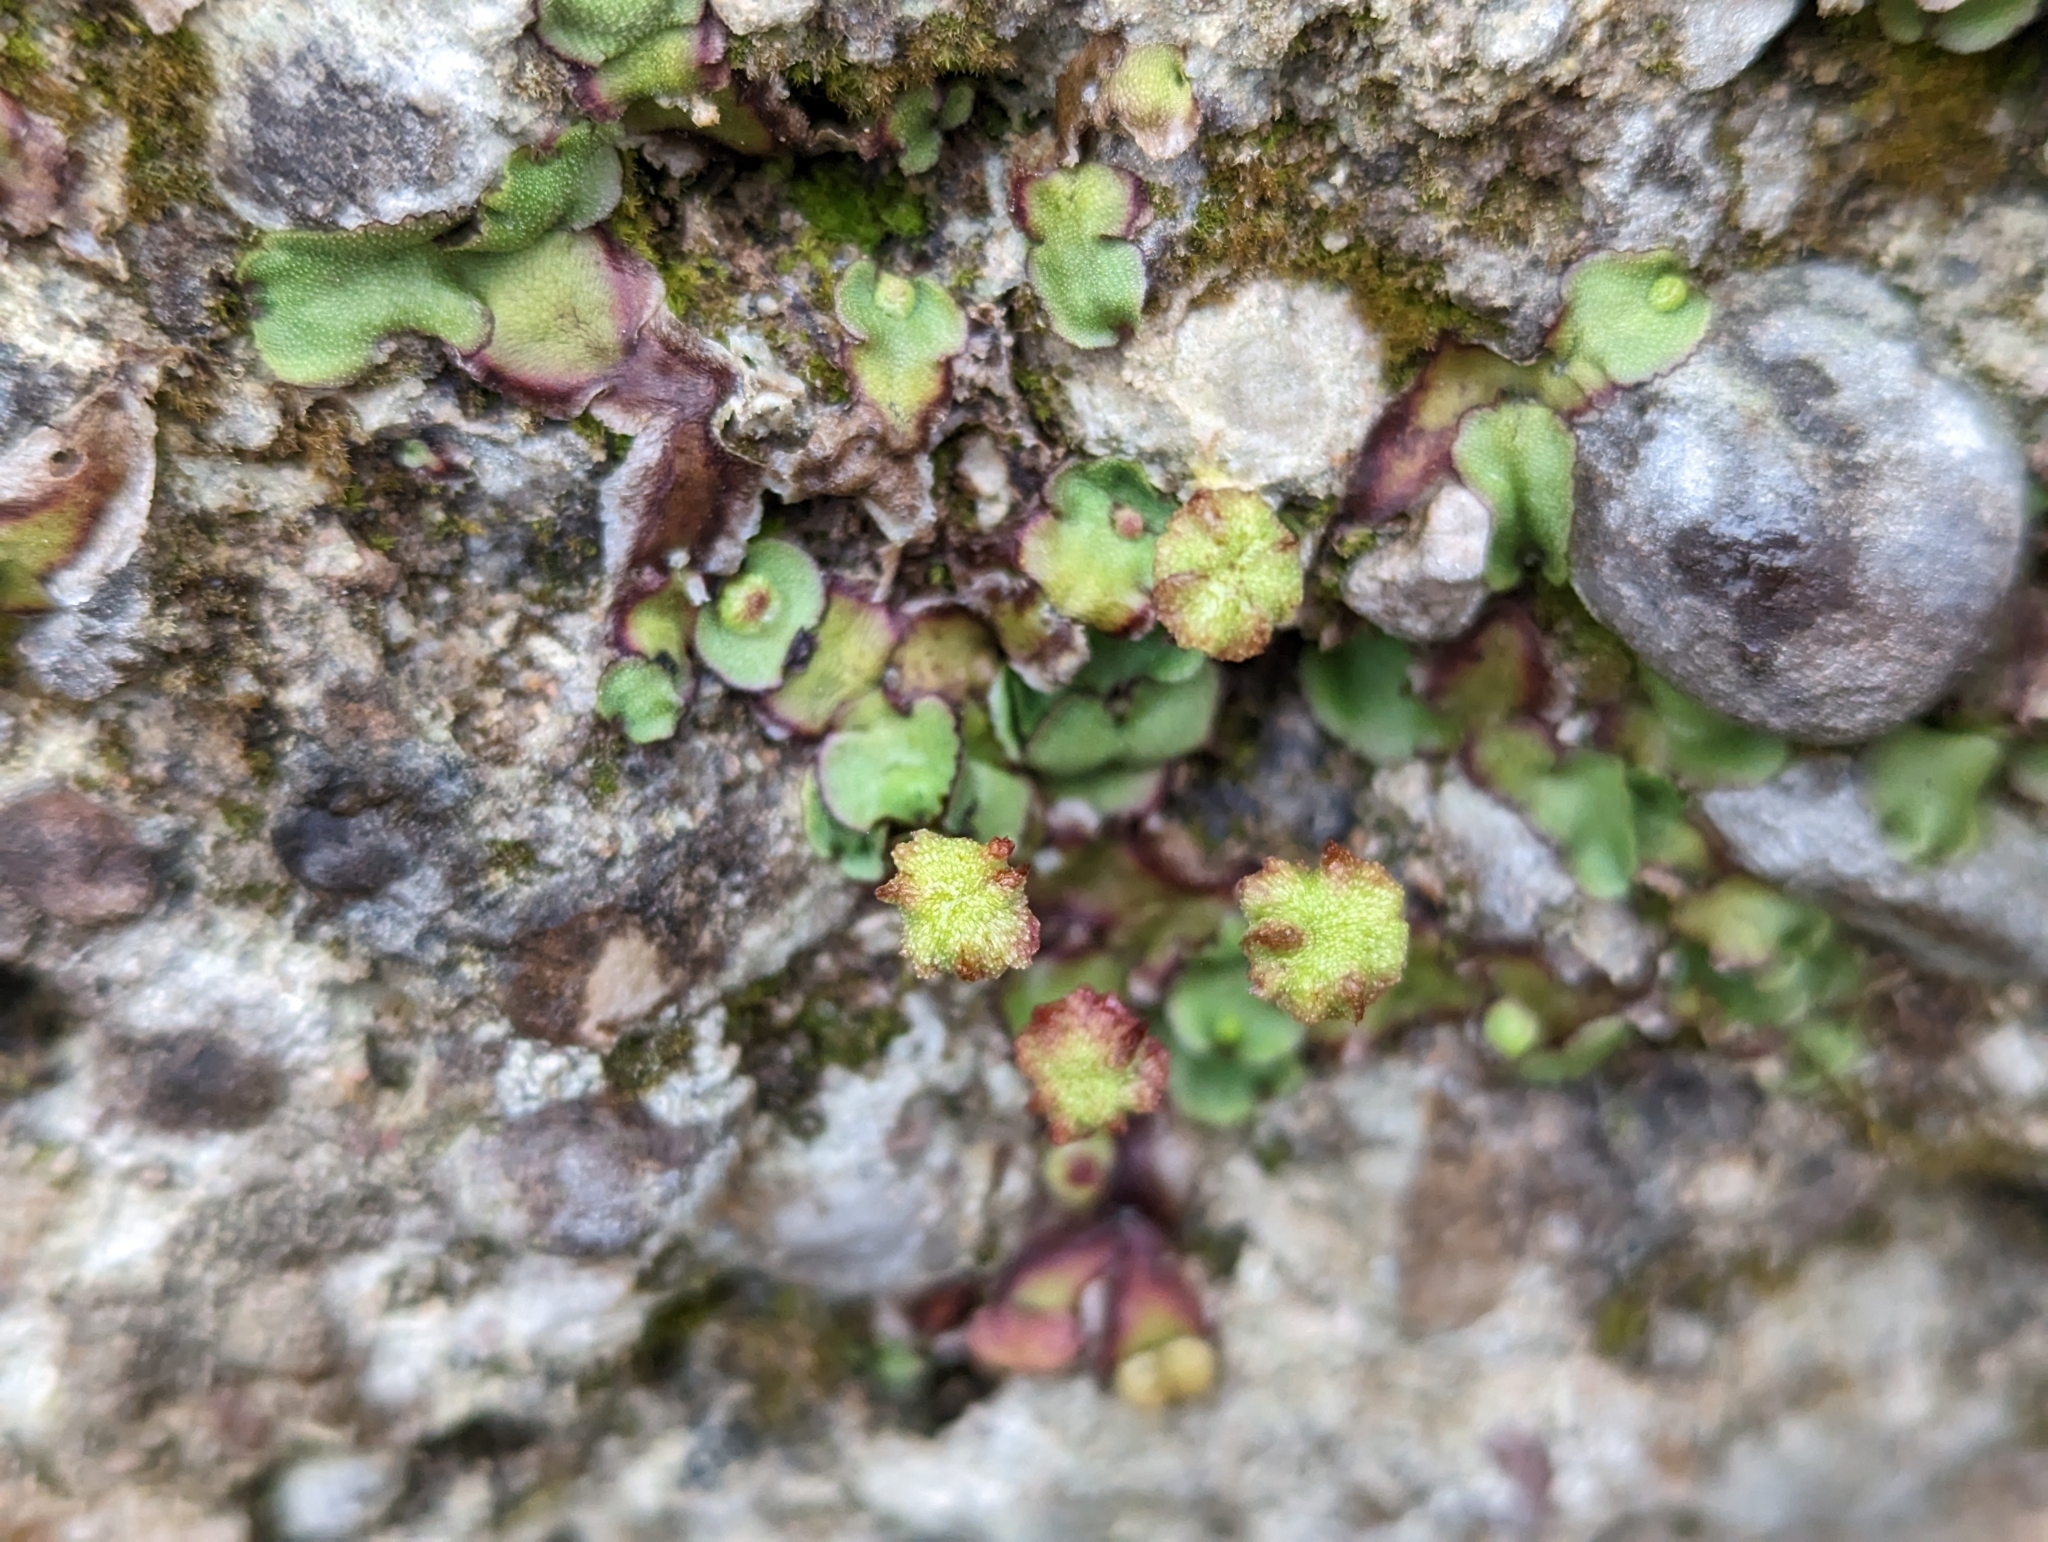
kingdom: Plantae
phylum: Marchantiophyta
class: Marchantiopsida
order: Marchantiales
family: Marchantiaceae
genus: Marchantia
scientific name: Marchantia quadrata
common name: Narrow mushroom-headed liverwort
